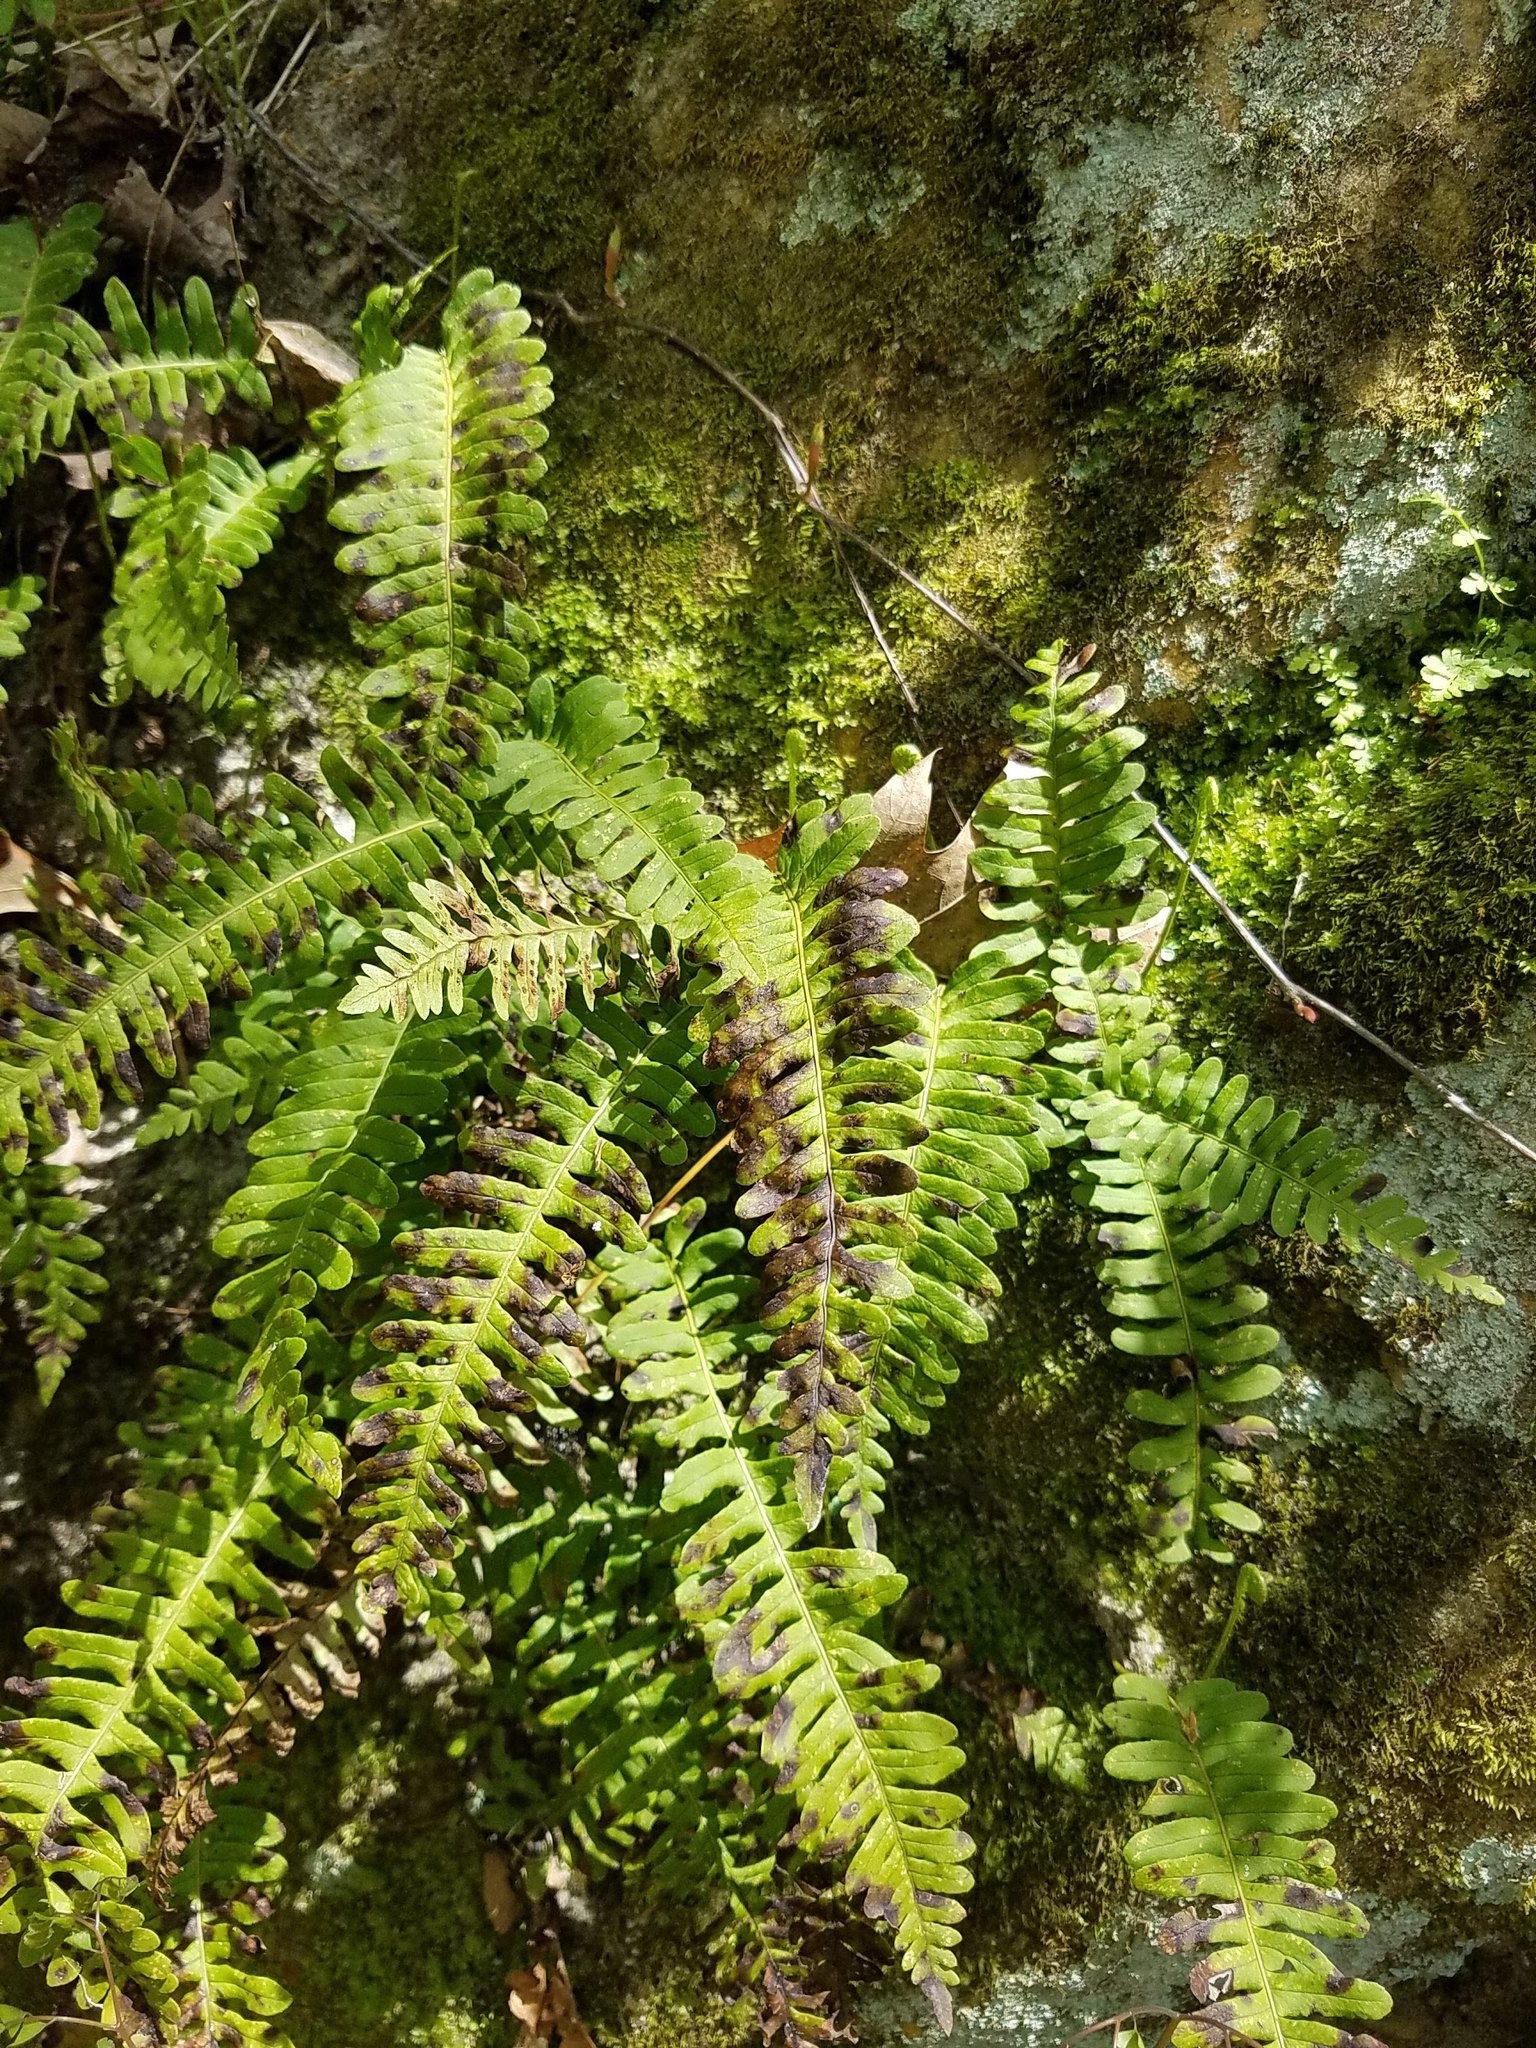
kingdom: Plantae
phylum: Tracheophyta
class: Polypodiopsida
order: Polypodiales
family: Polypodiaceae
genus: Polypodium
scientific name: Polypodium virginianum
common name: American wall fern
